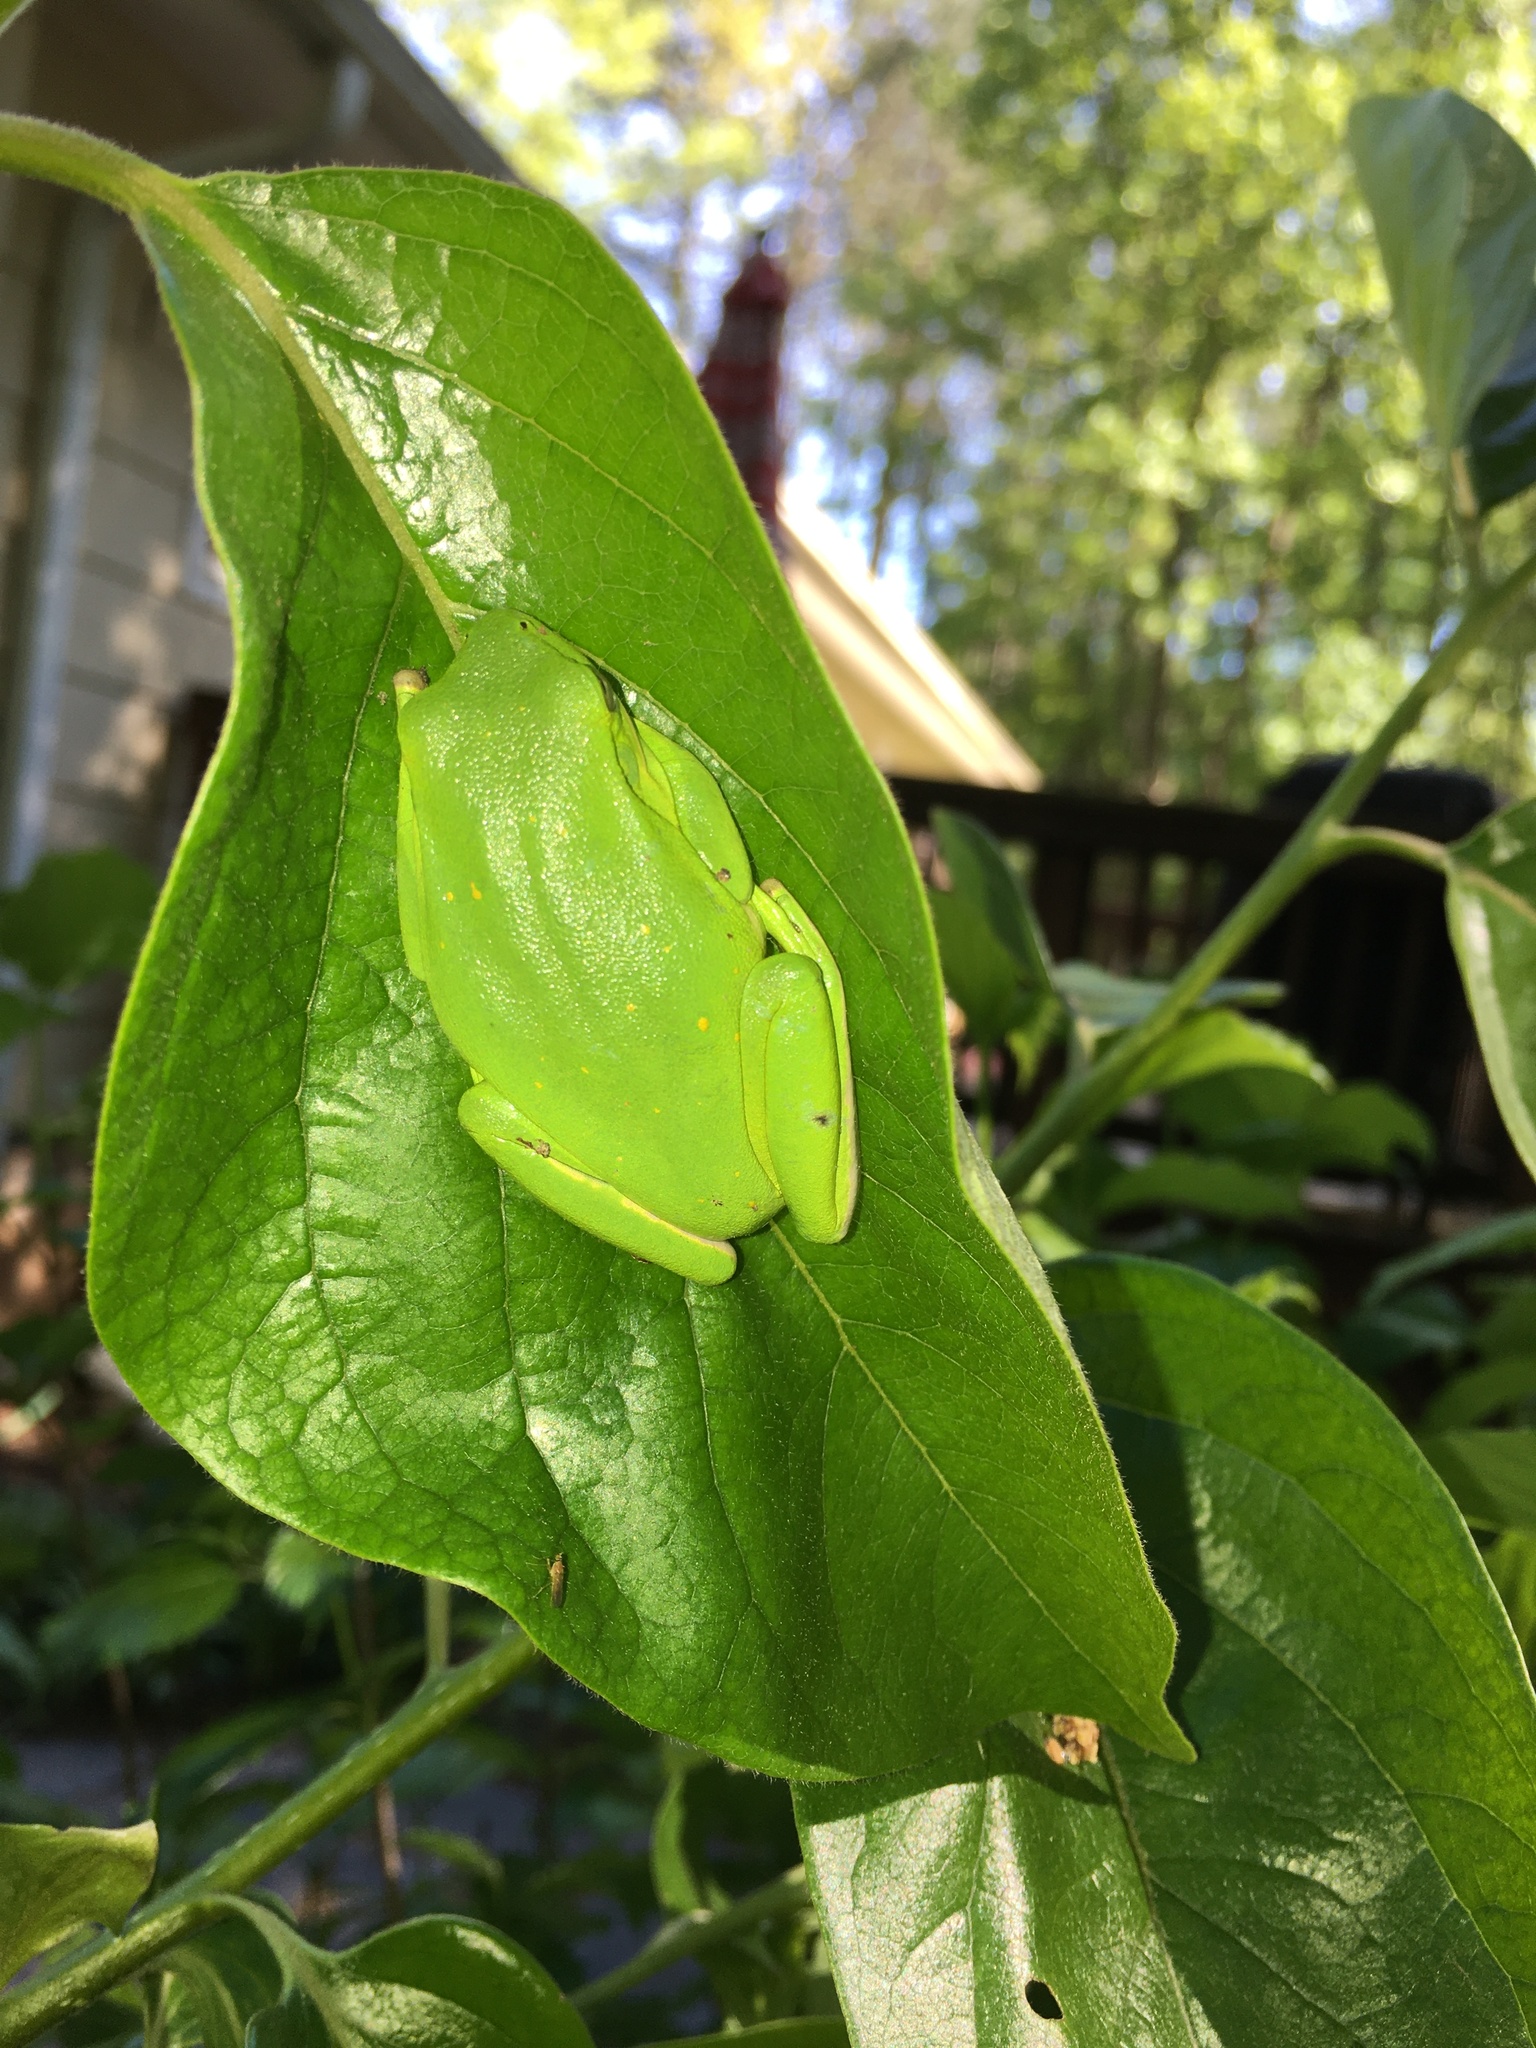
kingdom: Animalia
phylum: Chordata
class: Amphibia
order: Anura
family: Hylidae
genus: Dryophytes
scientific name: Dryophytes cinereus
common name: Green treefrog
